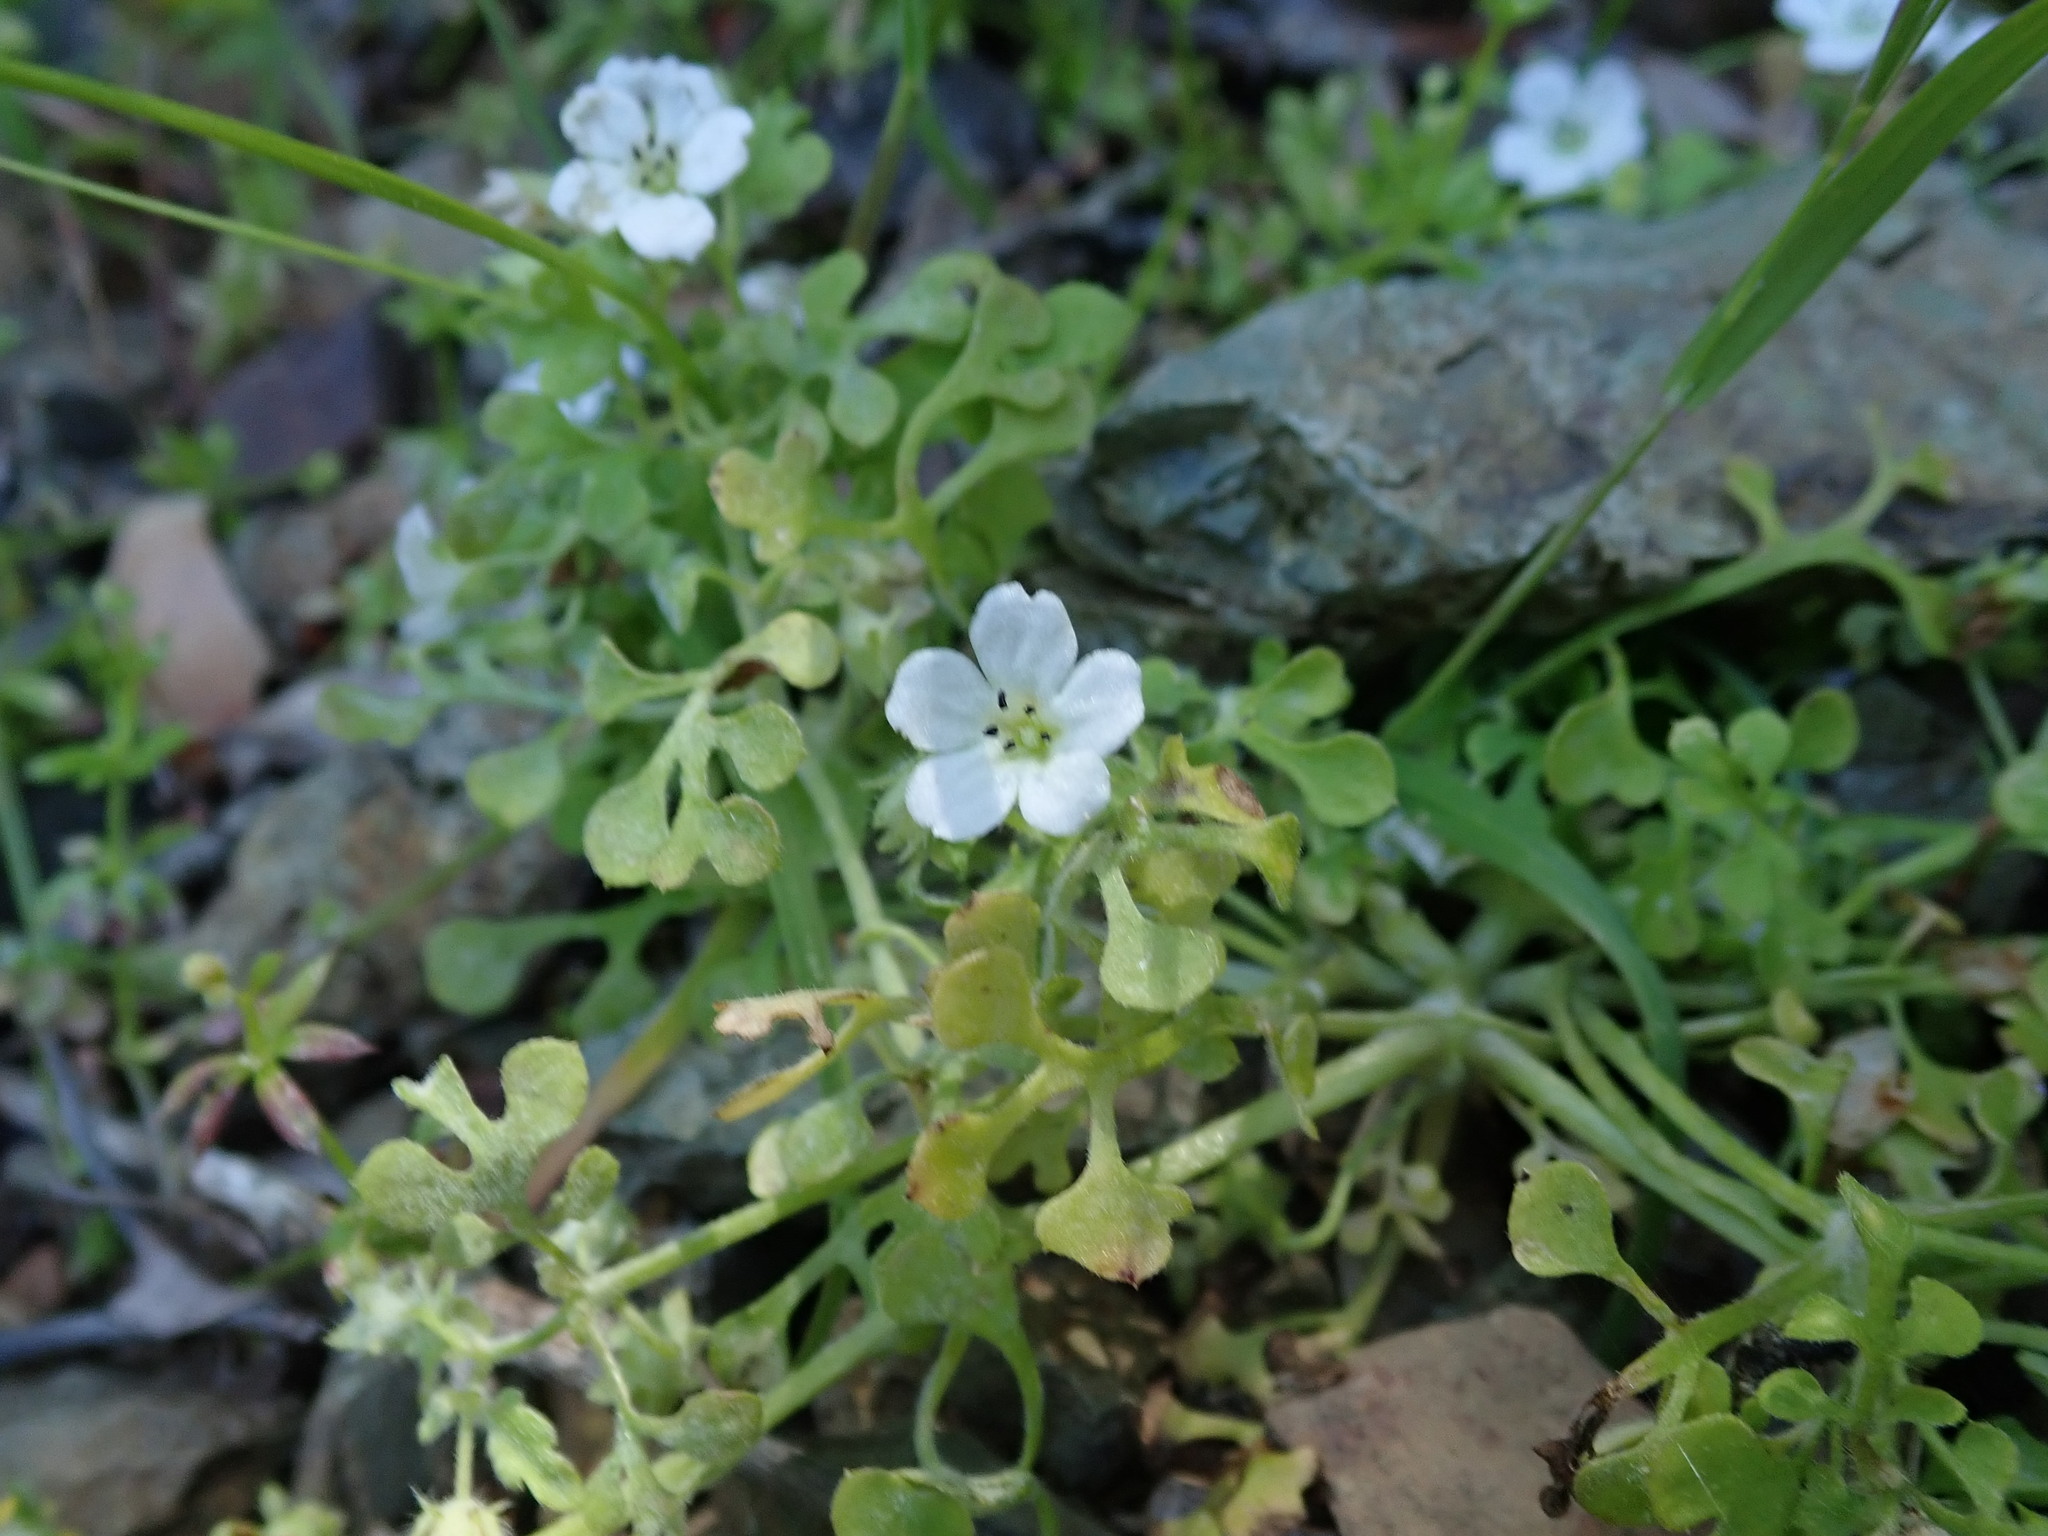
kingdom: Plantae
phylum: Tracheophyta
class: Magnoliopsida
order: Boraginales
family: Hydrophyllaceae
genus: Nemophila
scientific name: Nemophila heterophylla
